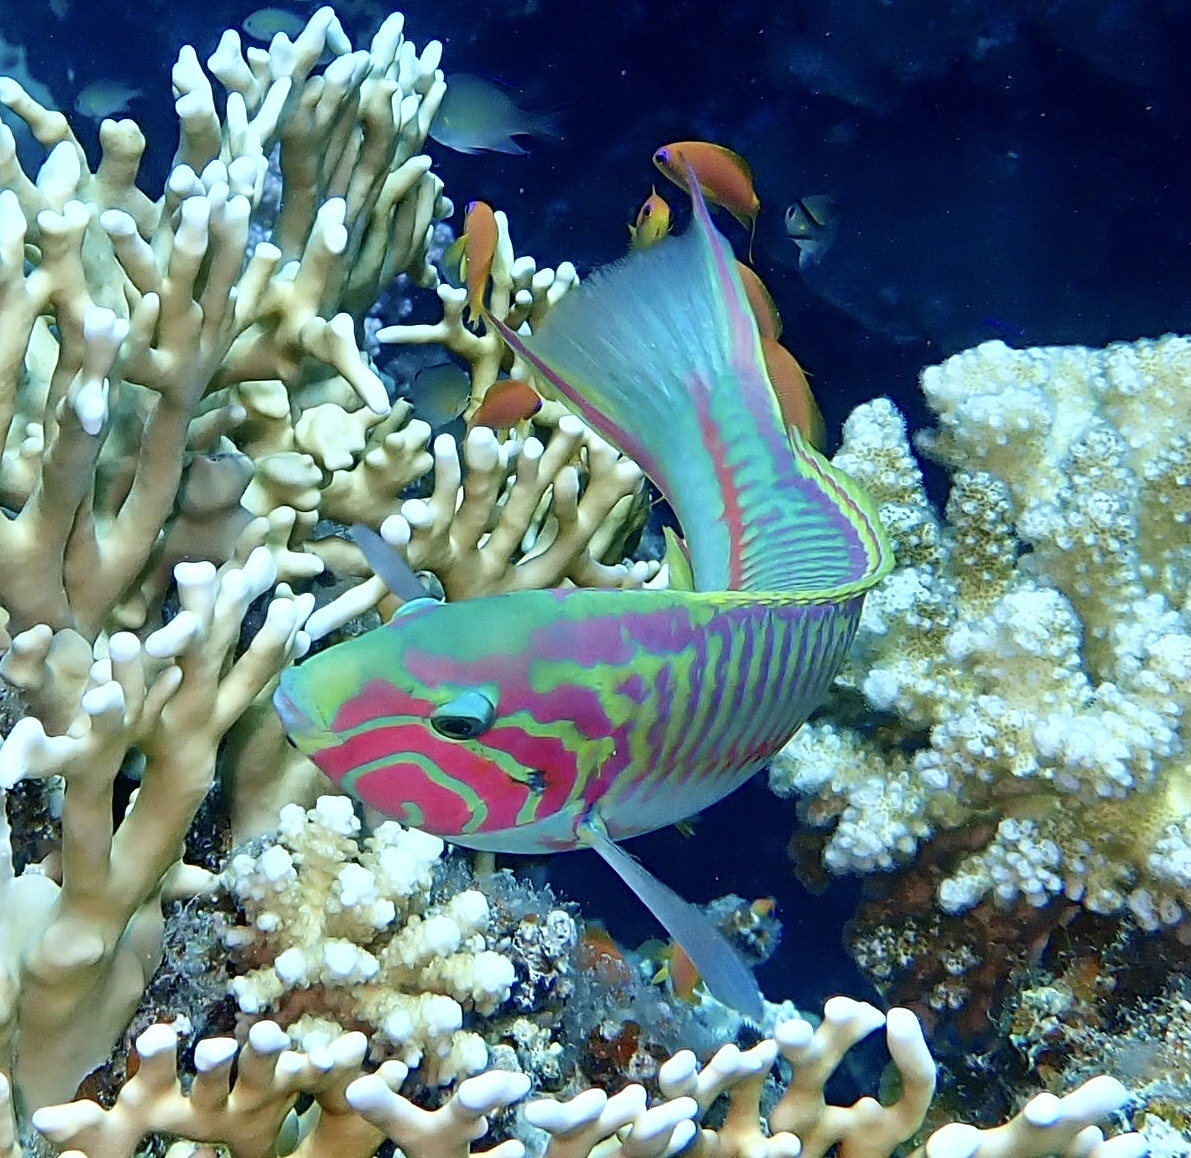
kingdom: Animalia
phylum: Chordata
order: Perciformes
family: Labridae
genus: Thalassoma
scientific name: Thalassoma rueppellii
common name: Klunzinger's wrasse
